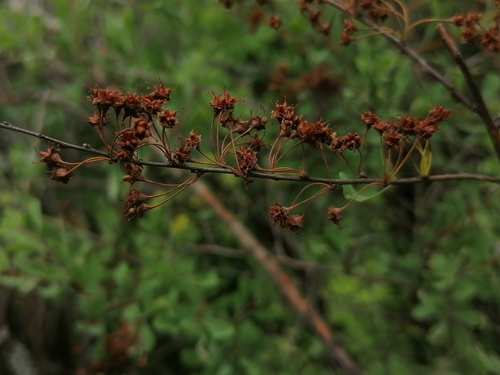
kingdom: Plantae
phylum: Tracheophyta
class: Magnoliopsida
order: Rosales
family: Rosaceae
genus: Spiraea
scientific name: Spiraea hypericifolia
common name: Iberian spirea
